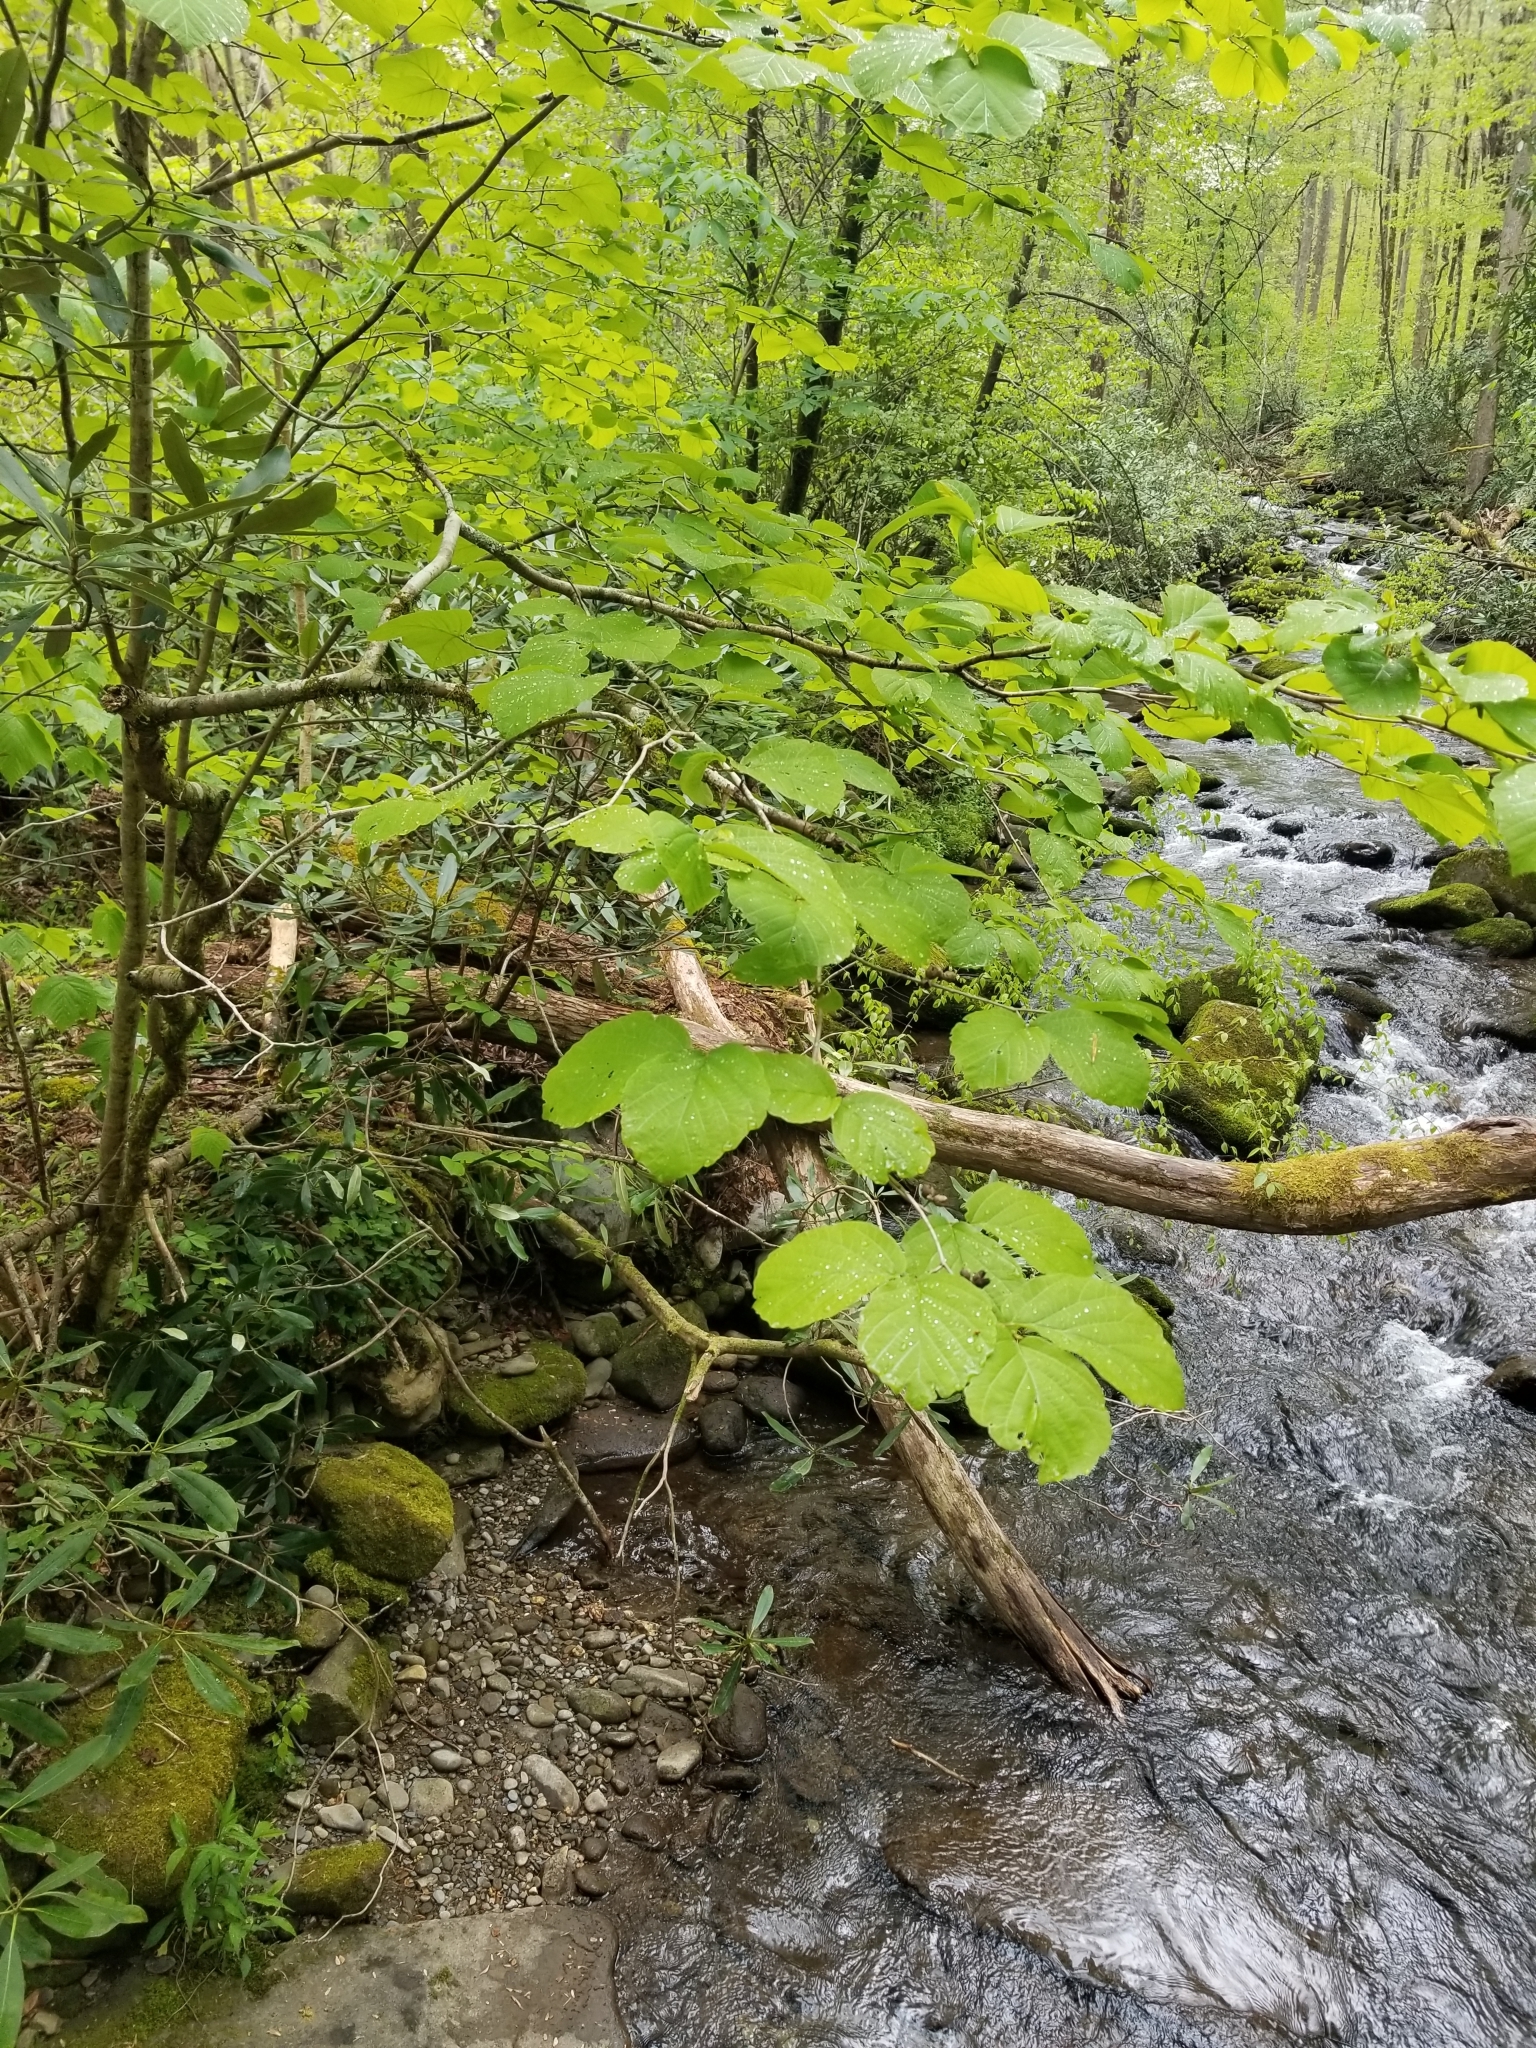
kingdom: Plantae
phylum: Tracheophyta
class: Magnoliopsida
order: Saxifragales
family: Hamamelidaceae
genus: Hamamelis
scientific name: Hamamelis virginiana
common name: Witch-hazel
